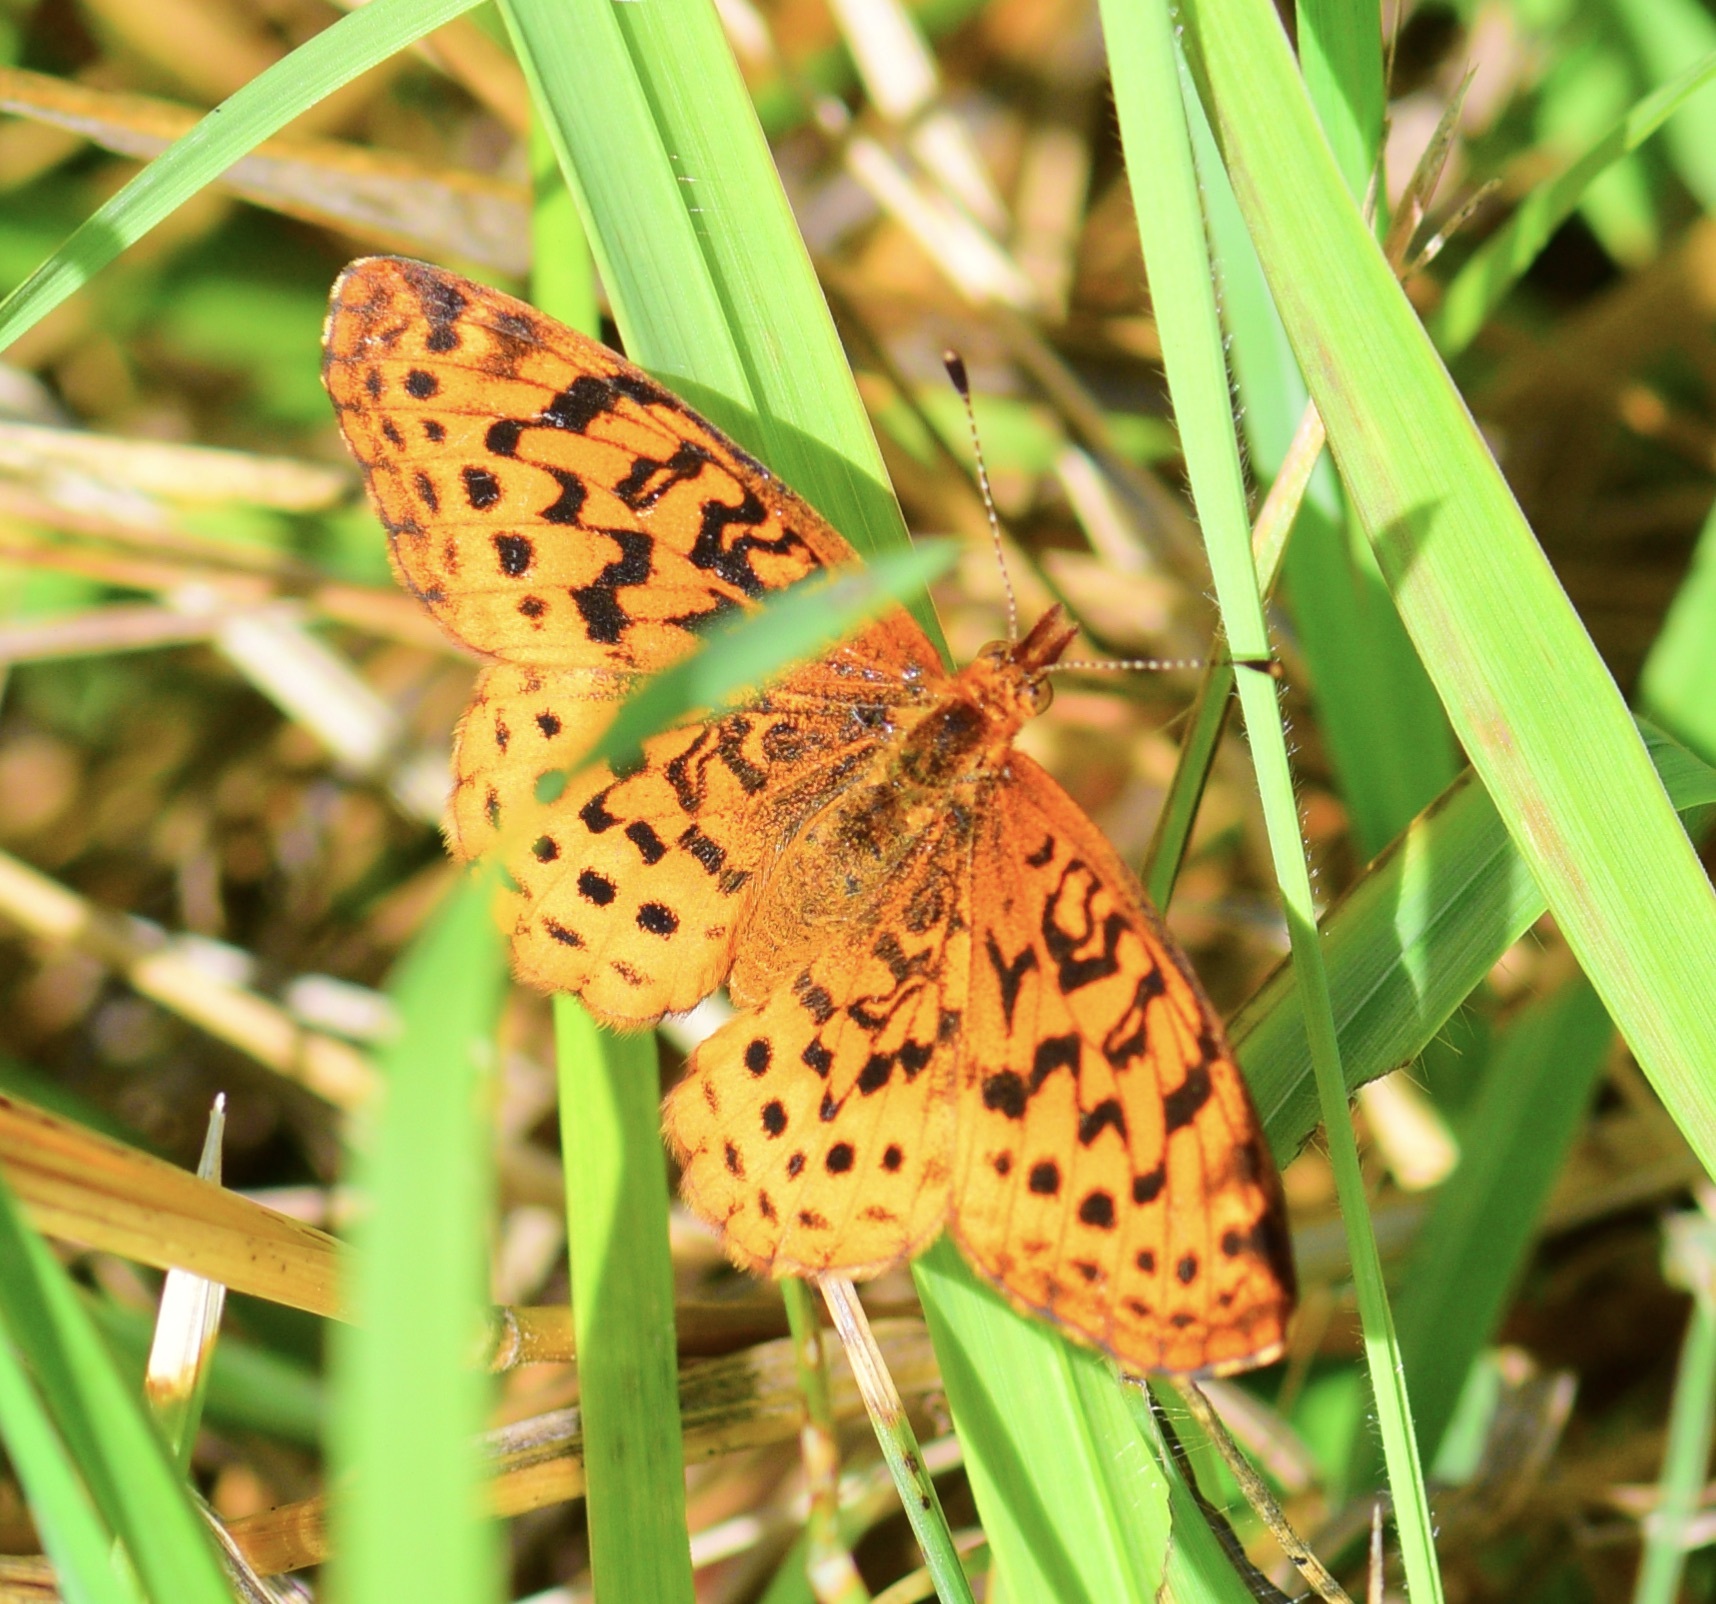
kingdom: Animalia
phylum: Arthropoda
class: Insecta
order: Lepidoptera
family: Nymphalidae
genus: Clossiana
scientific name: Clossiana toddi
